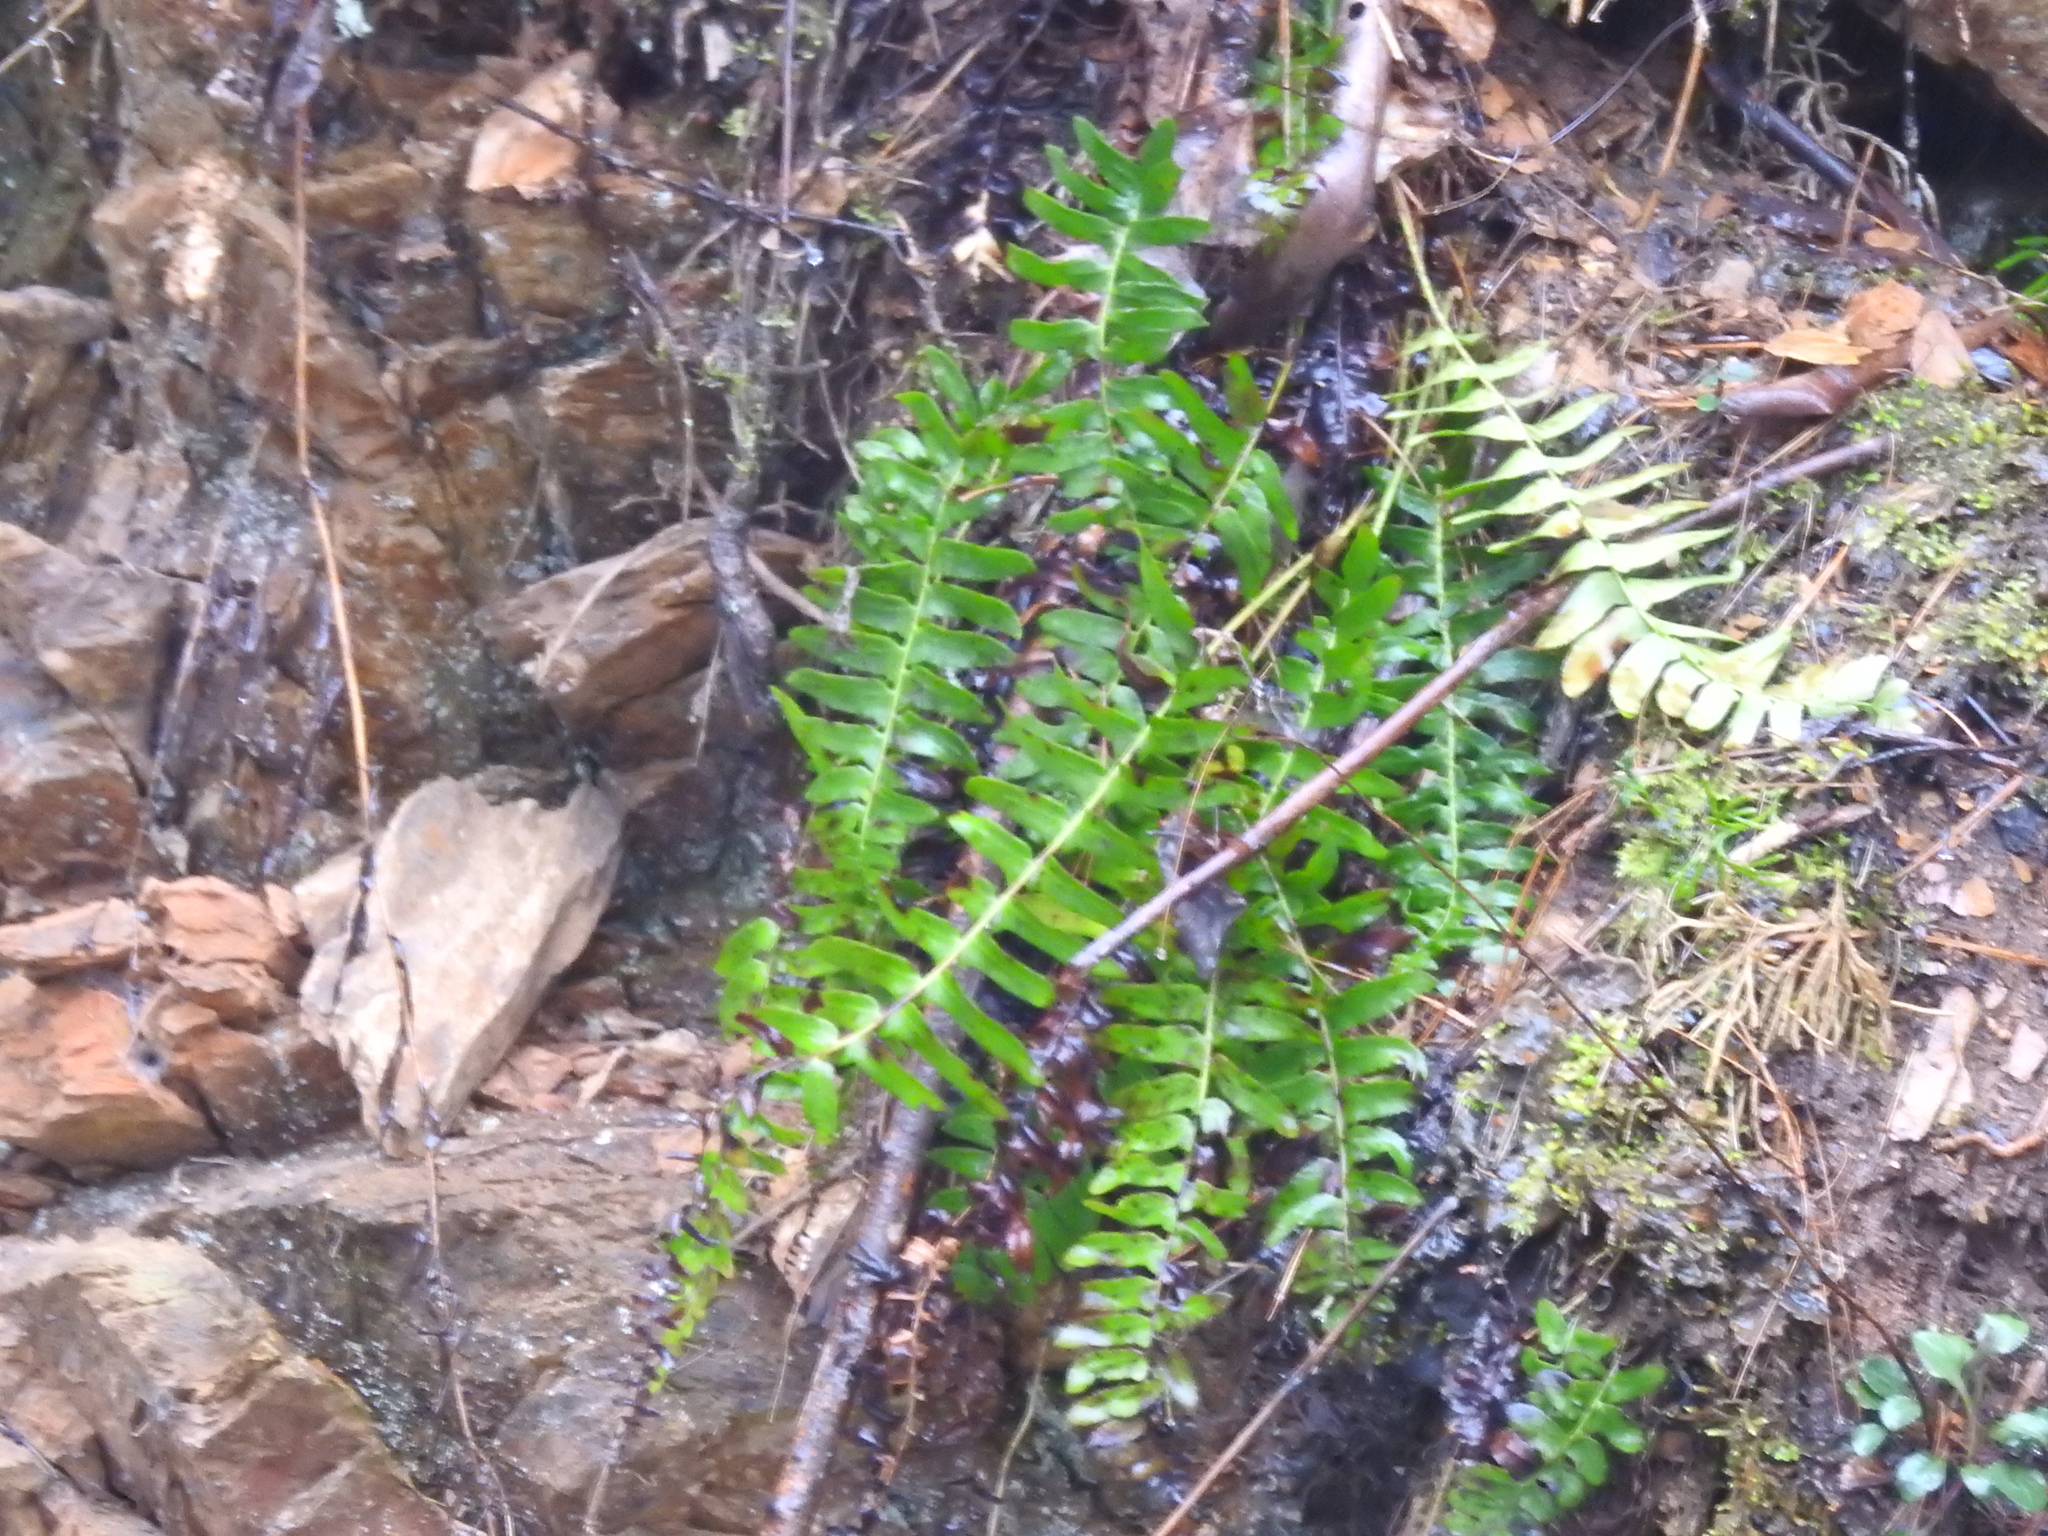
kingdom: Plantae
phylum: Tracheophyta
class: Polypodiopsida
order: Polypodiales
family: Dryopteridaceae
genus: Polystichum
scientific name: Polystichum acrostichoides
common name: Christmas fern
